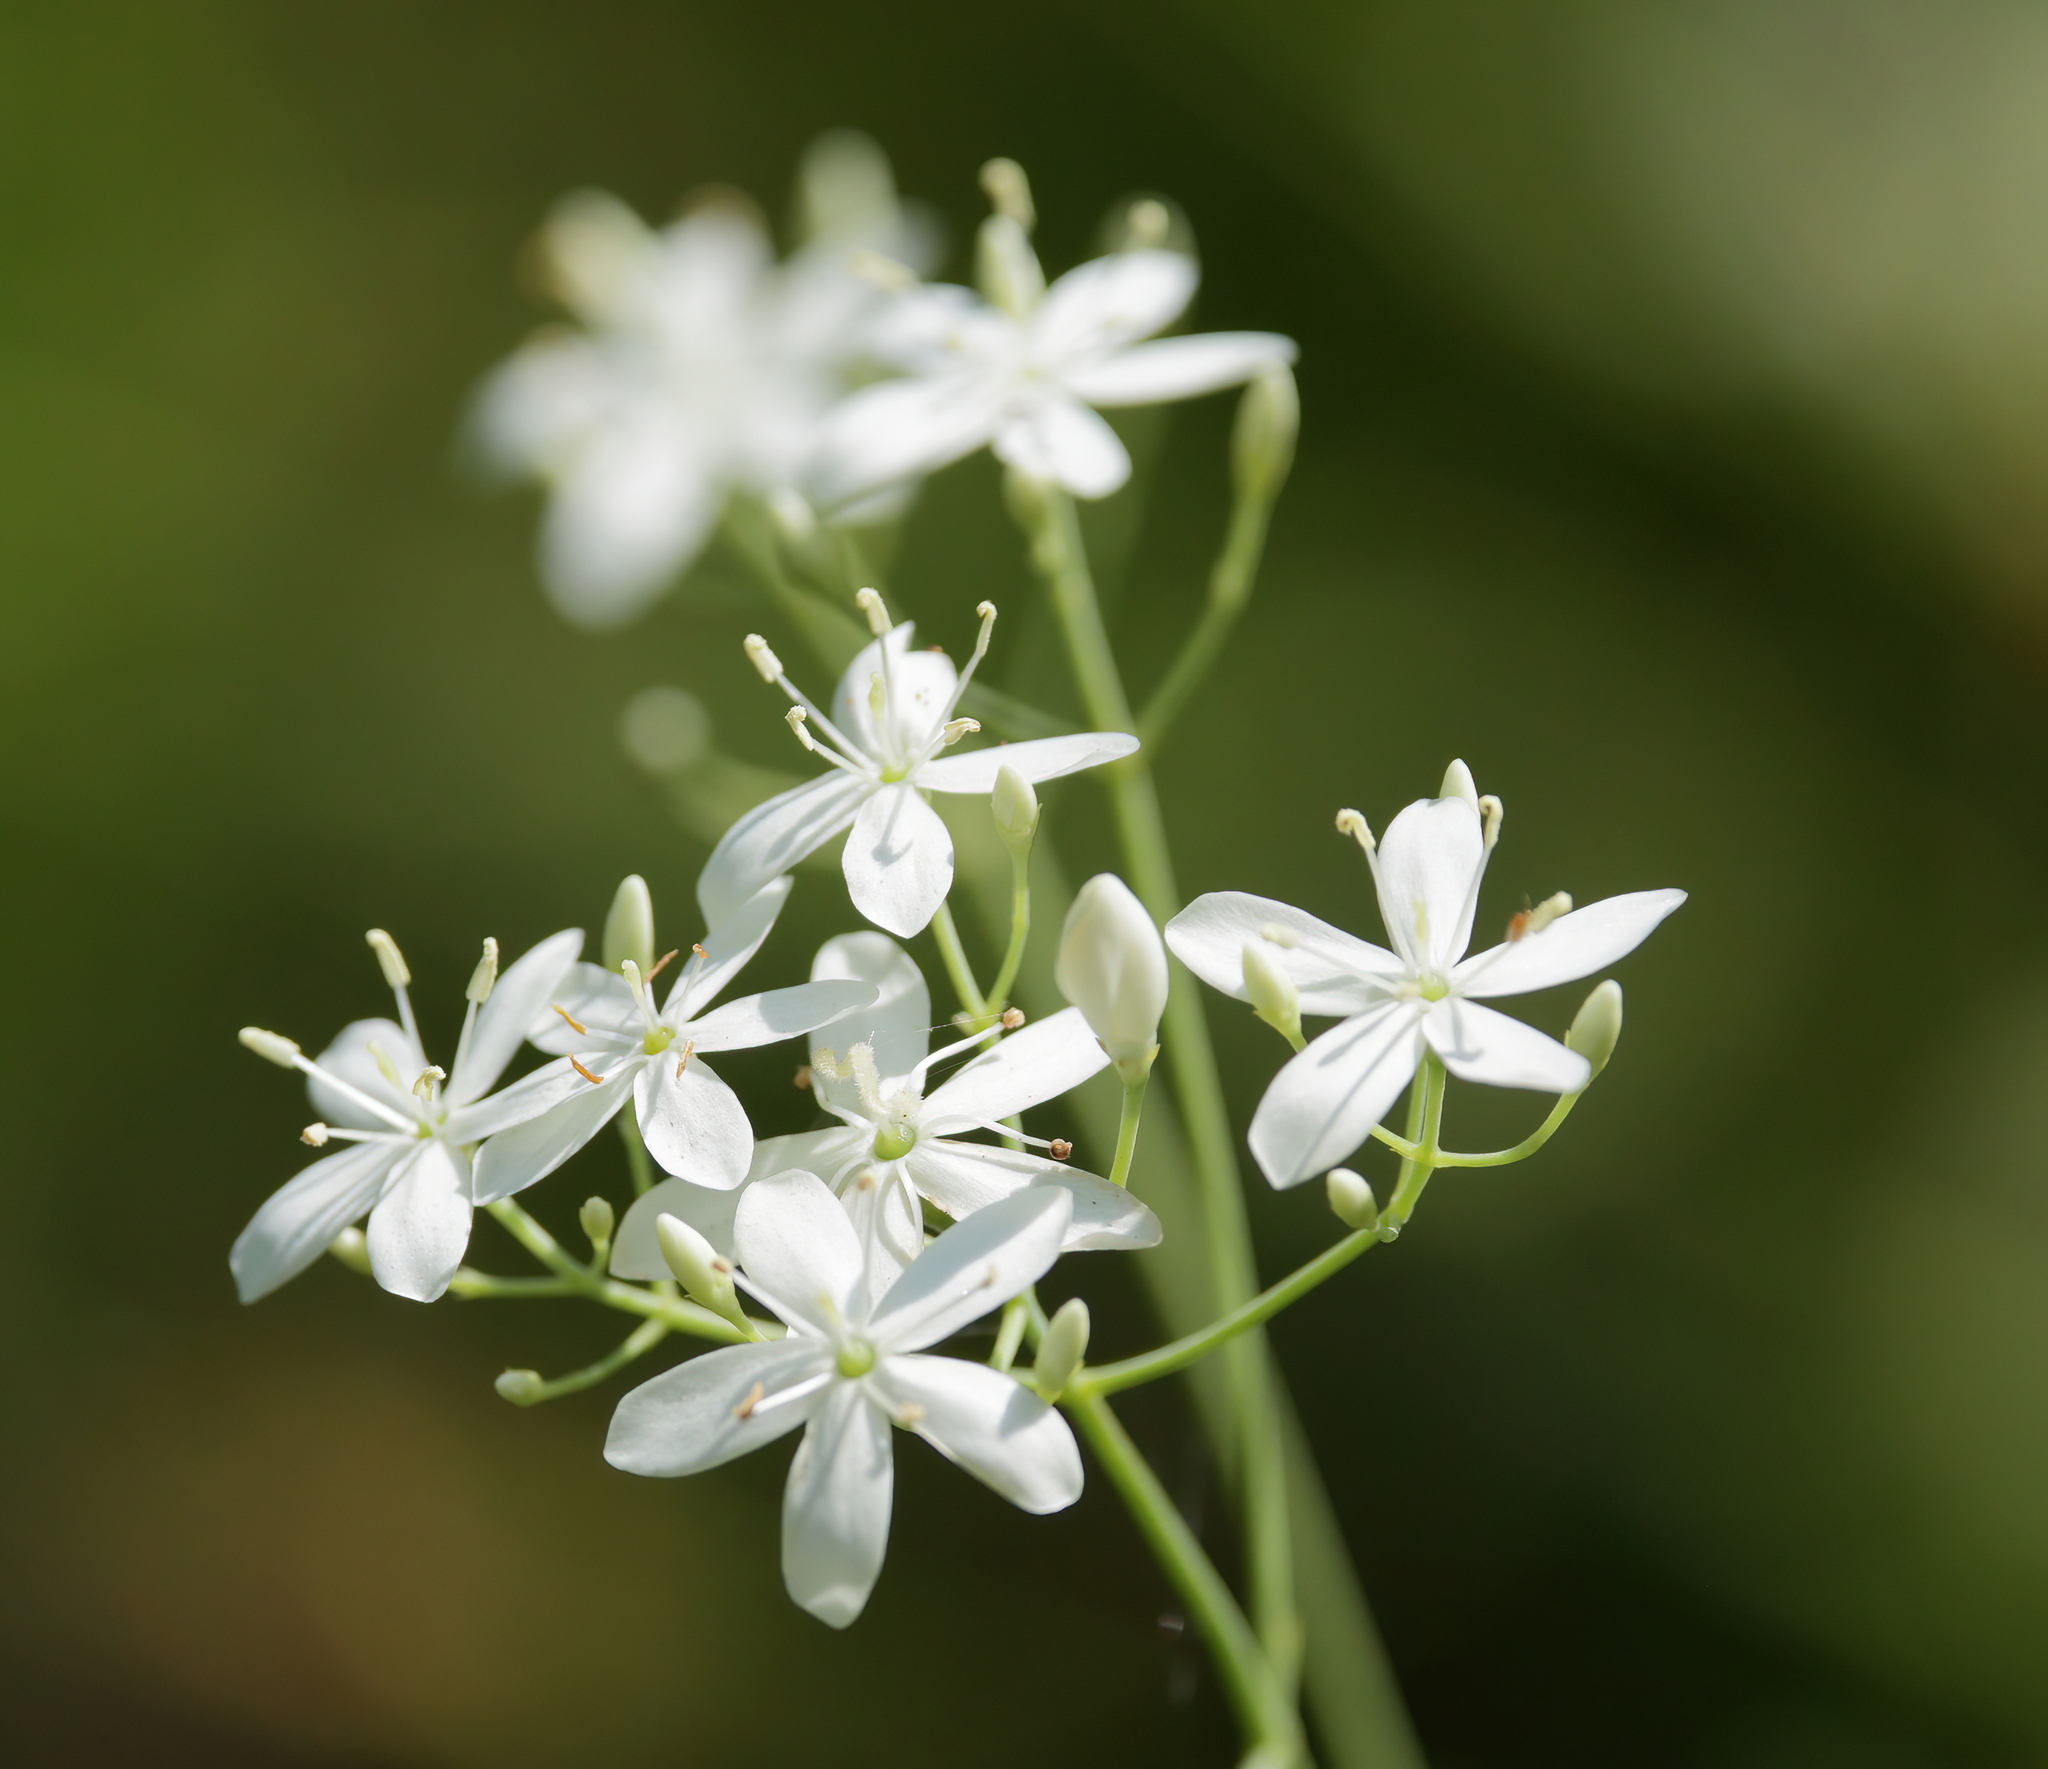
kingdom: Plantae
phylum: Tracheophyta
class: Magnoliopsida
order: Gentianales
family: Gentianaceae
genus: Sabatia
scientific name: Sabatia macrophylla
